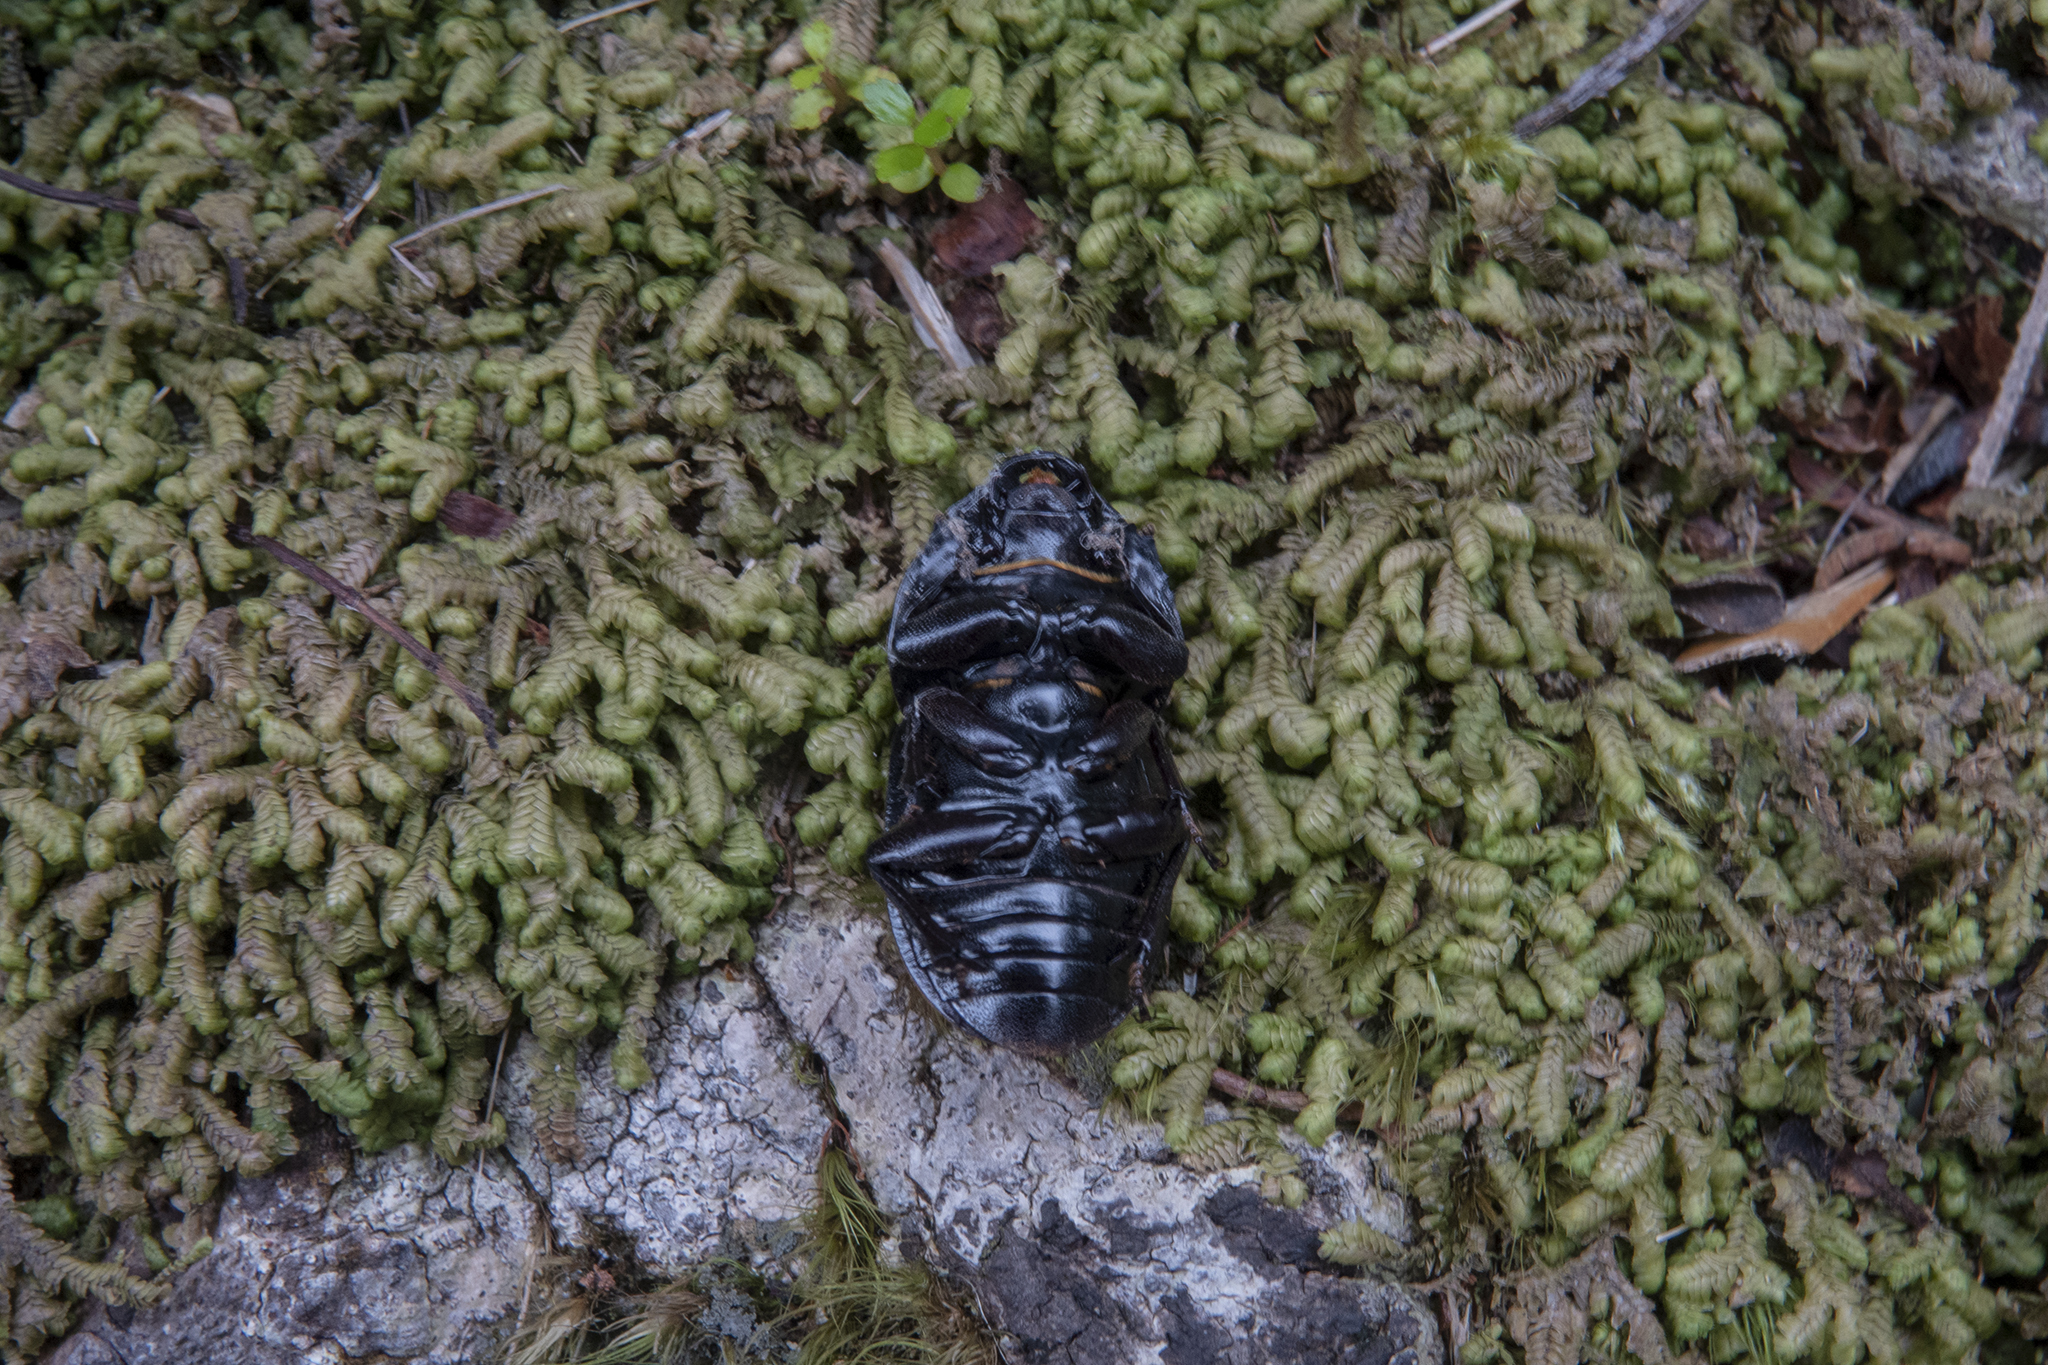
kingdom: Animalia
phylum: Arthropoda
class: Insecta
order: Coleoptera
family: Lucanidae
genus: Geodorcus
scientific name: Geodorcus helmsi
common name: Helm's stag beetle
